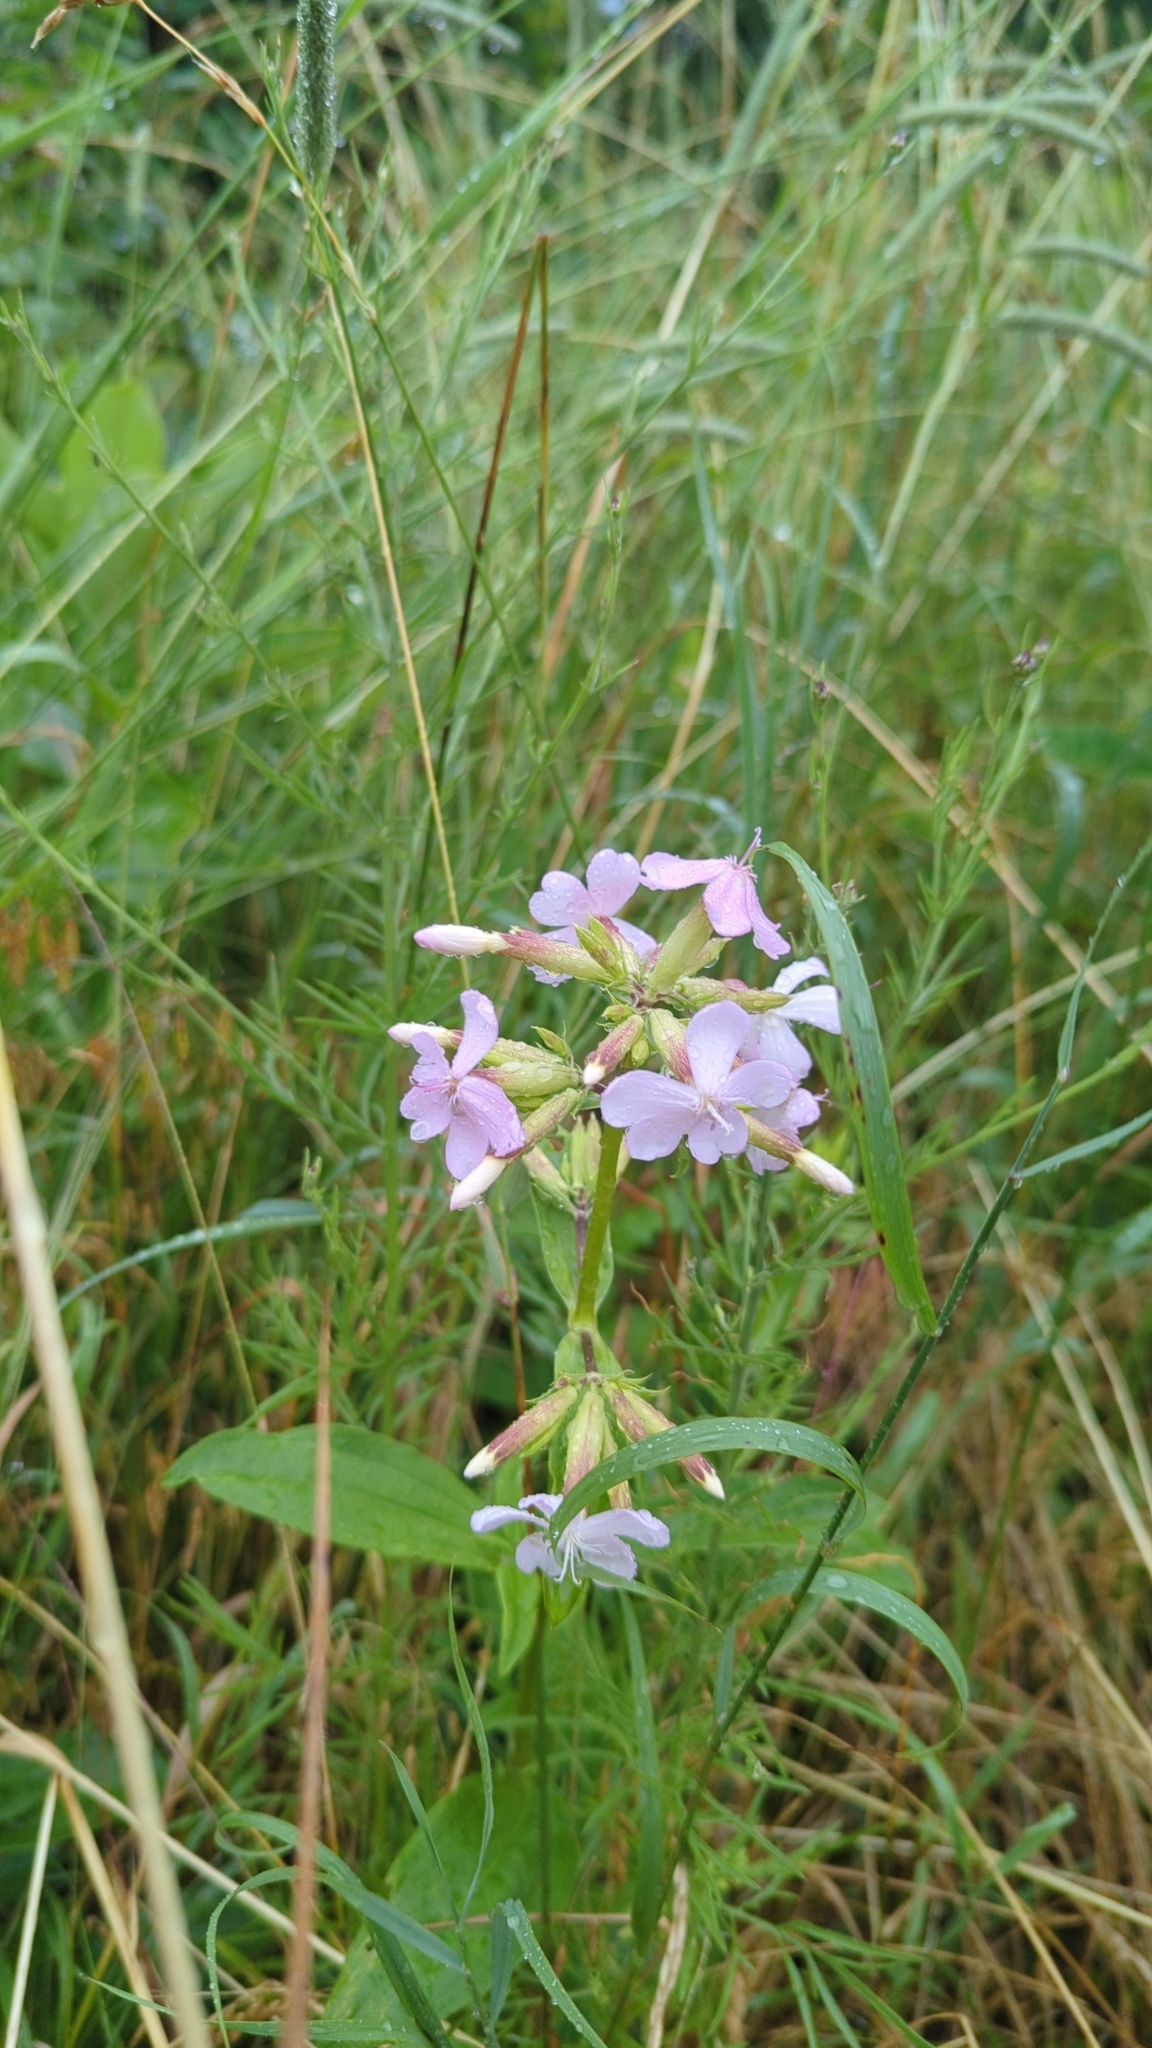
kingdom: Plantae
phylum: Tracheophyta
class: Magnoliopsida
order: Caryophyllales
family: Caryophyllaceae
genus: Saponaria
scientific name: Saponaria officinalis
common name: Soapwort
